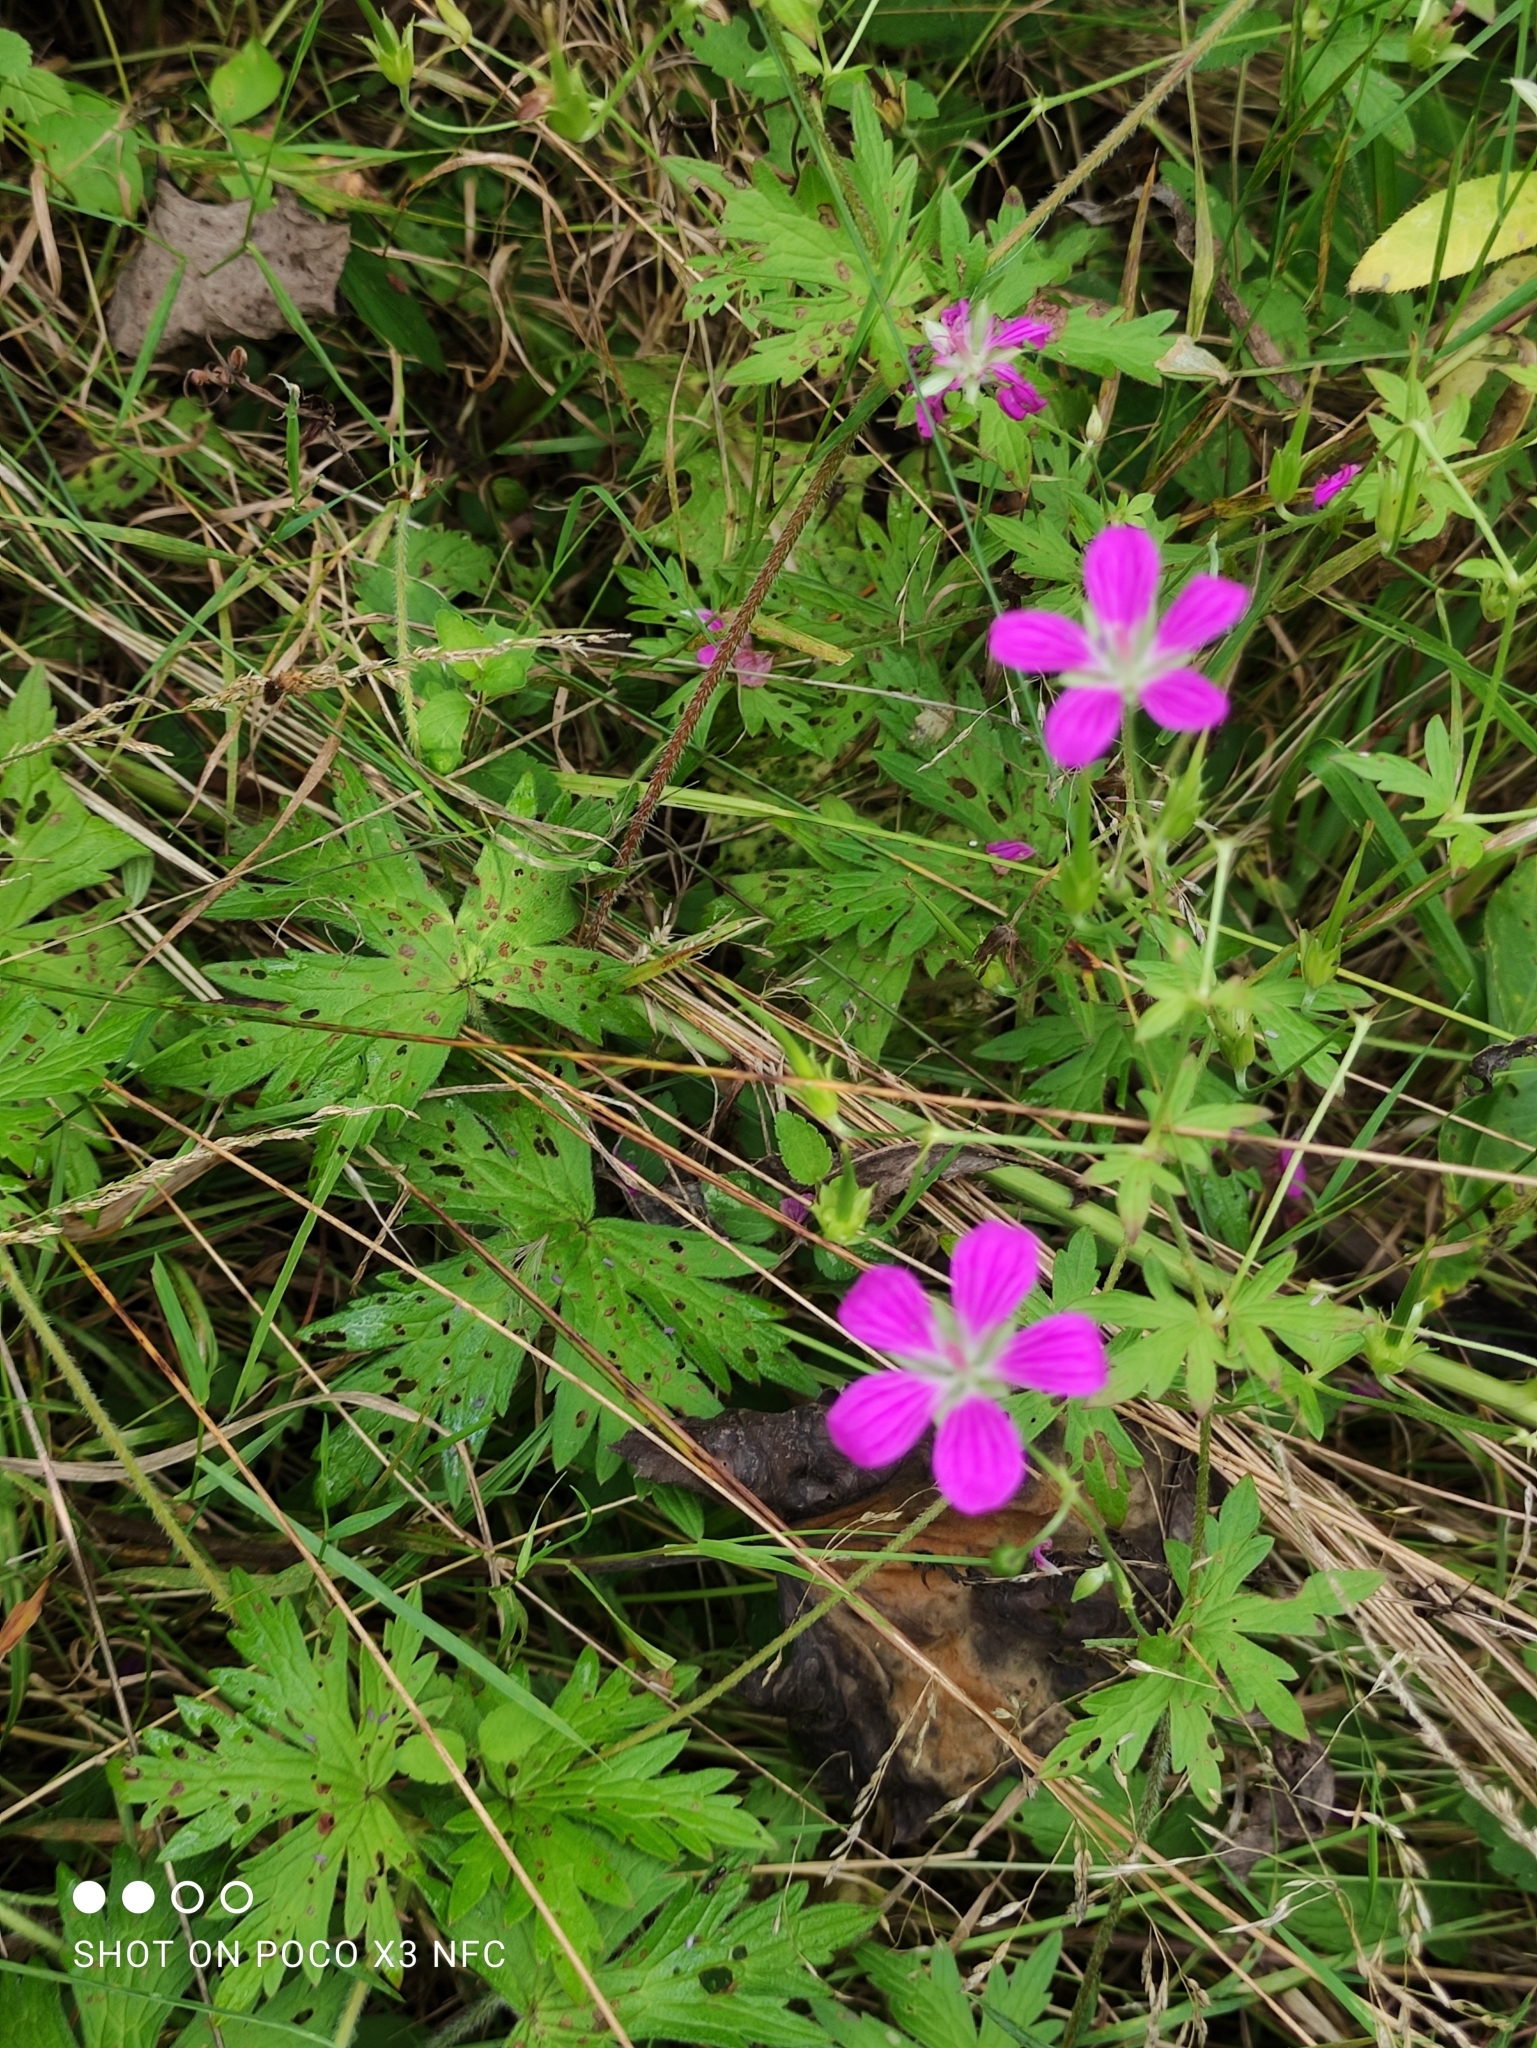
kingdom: Plantae
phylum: Tracheophyta
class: Magnoliopsida
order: Geraniales
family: Geraniaceae
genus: Geranium
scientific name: Geranium palustre
